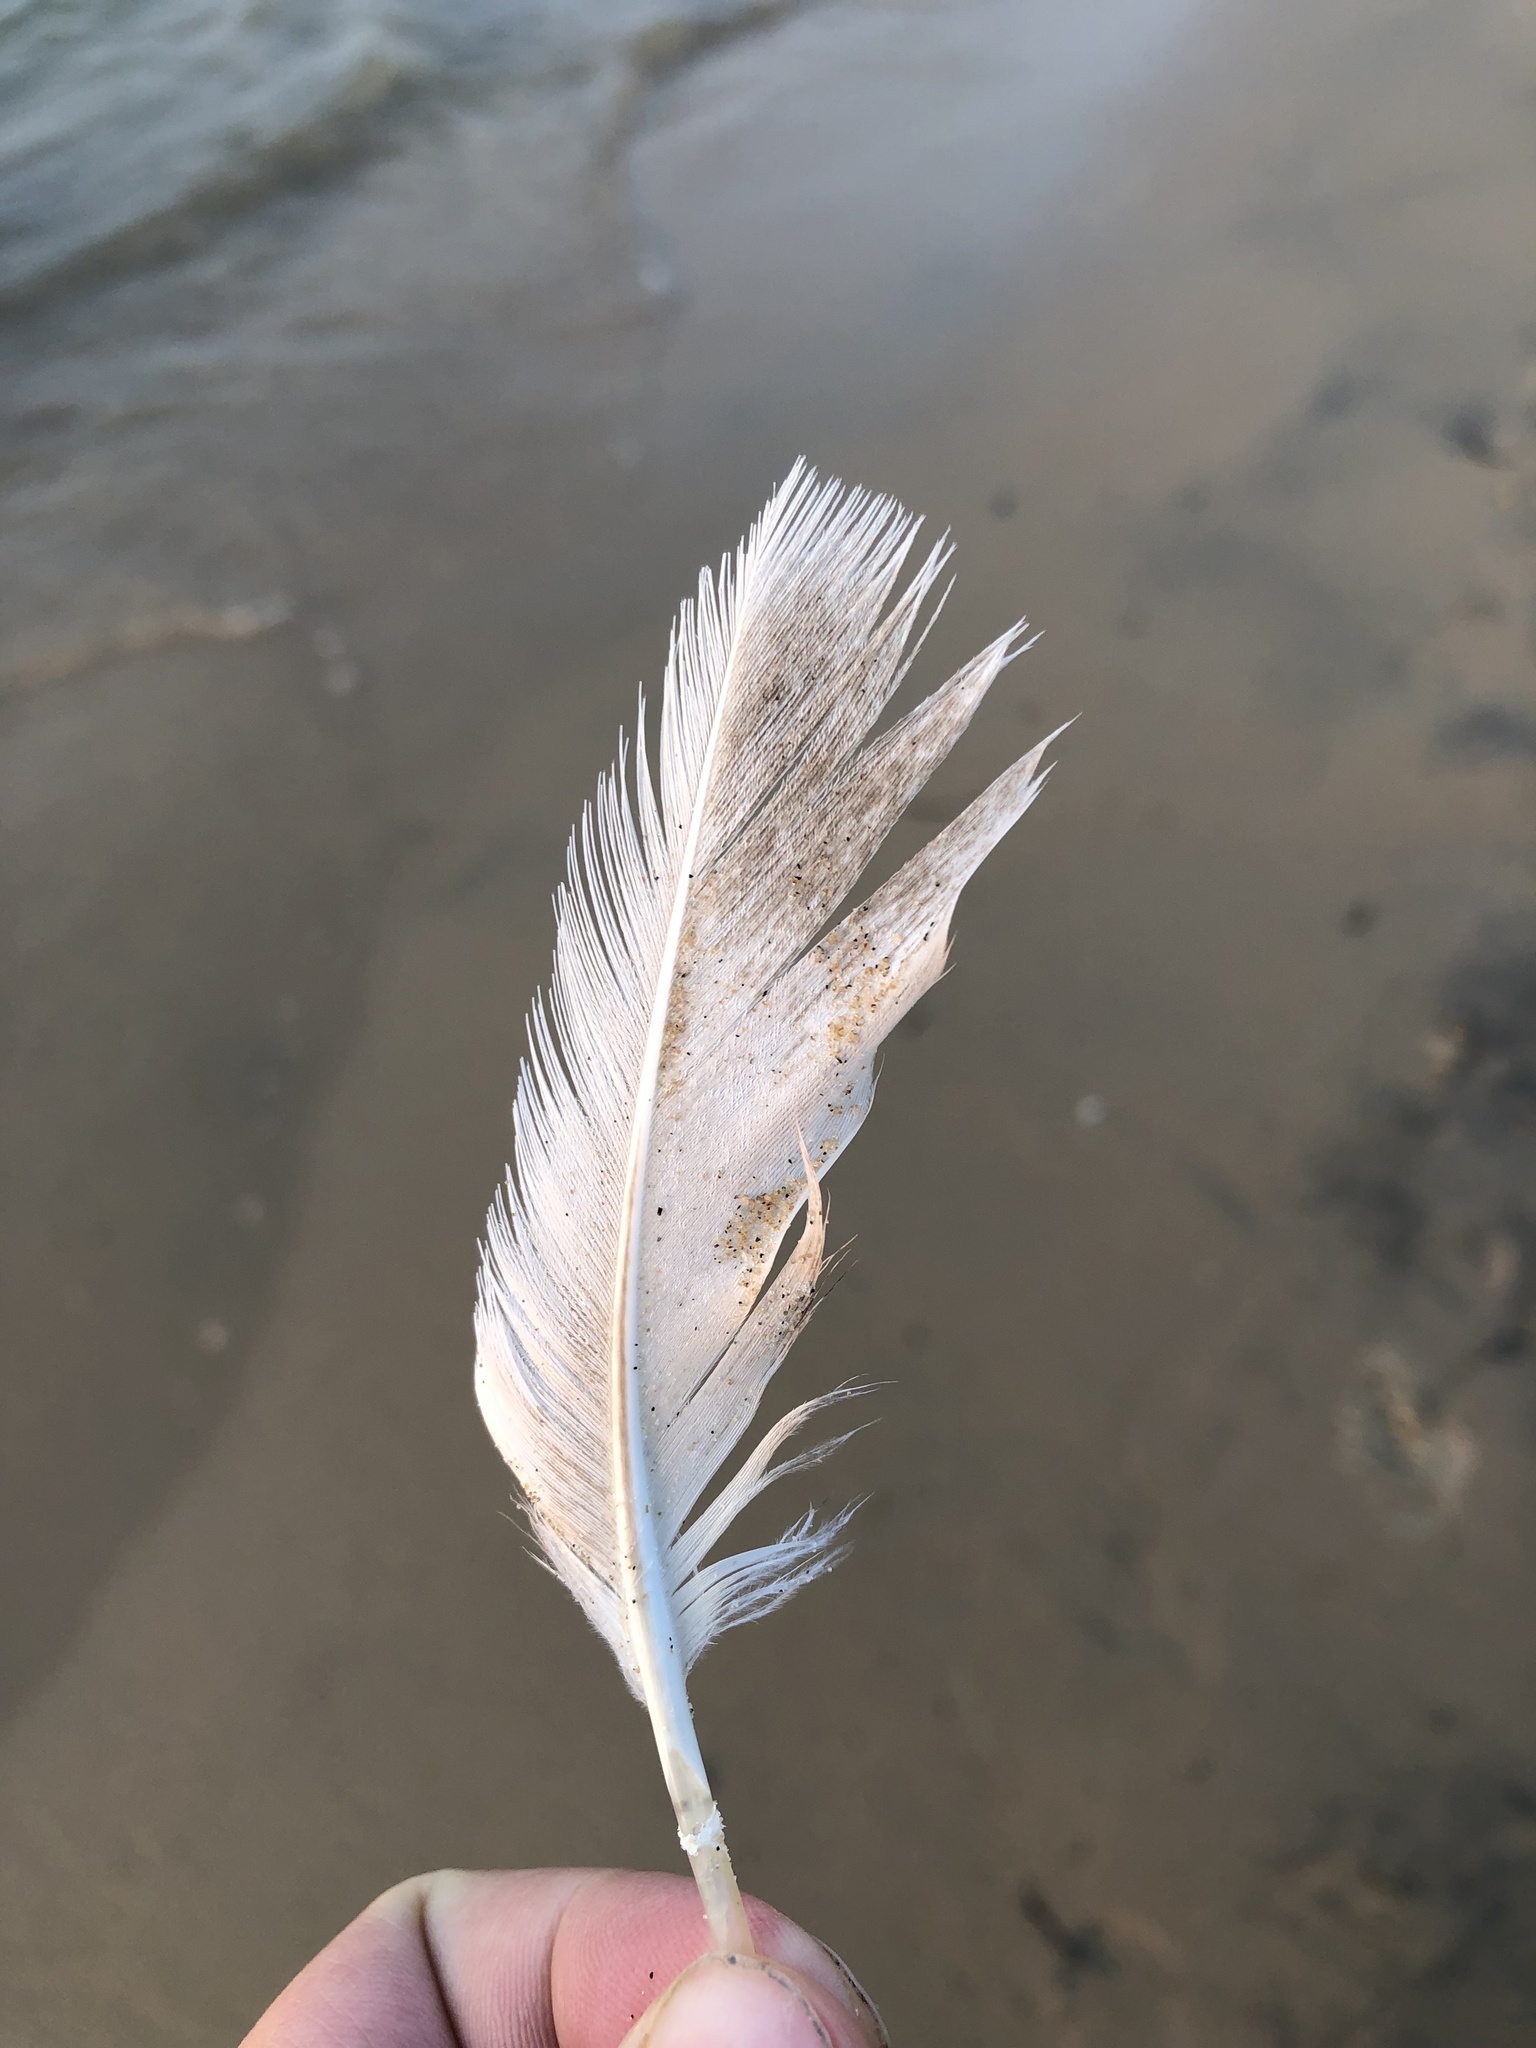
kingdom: Animalia
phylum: Chordata
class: Aves
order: Anseriformes
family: Anatidae
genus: Anas
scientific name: Anas platyrhynchos
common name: Mallard
